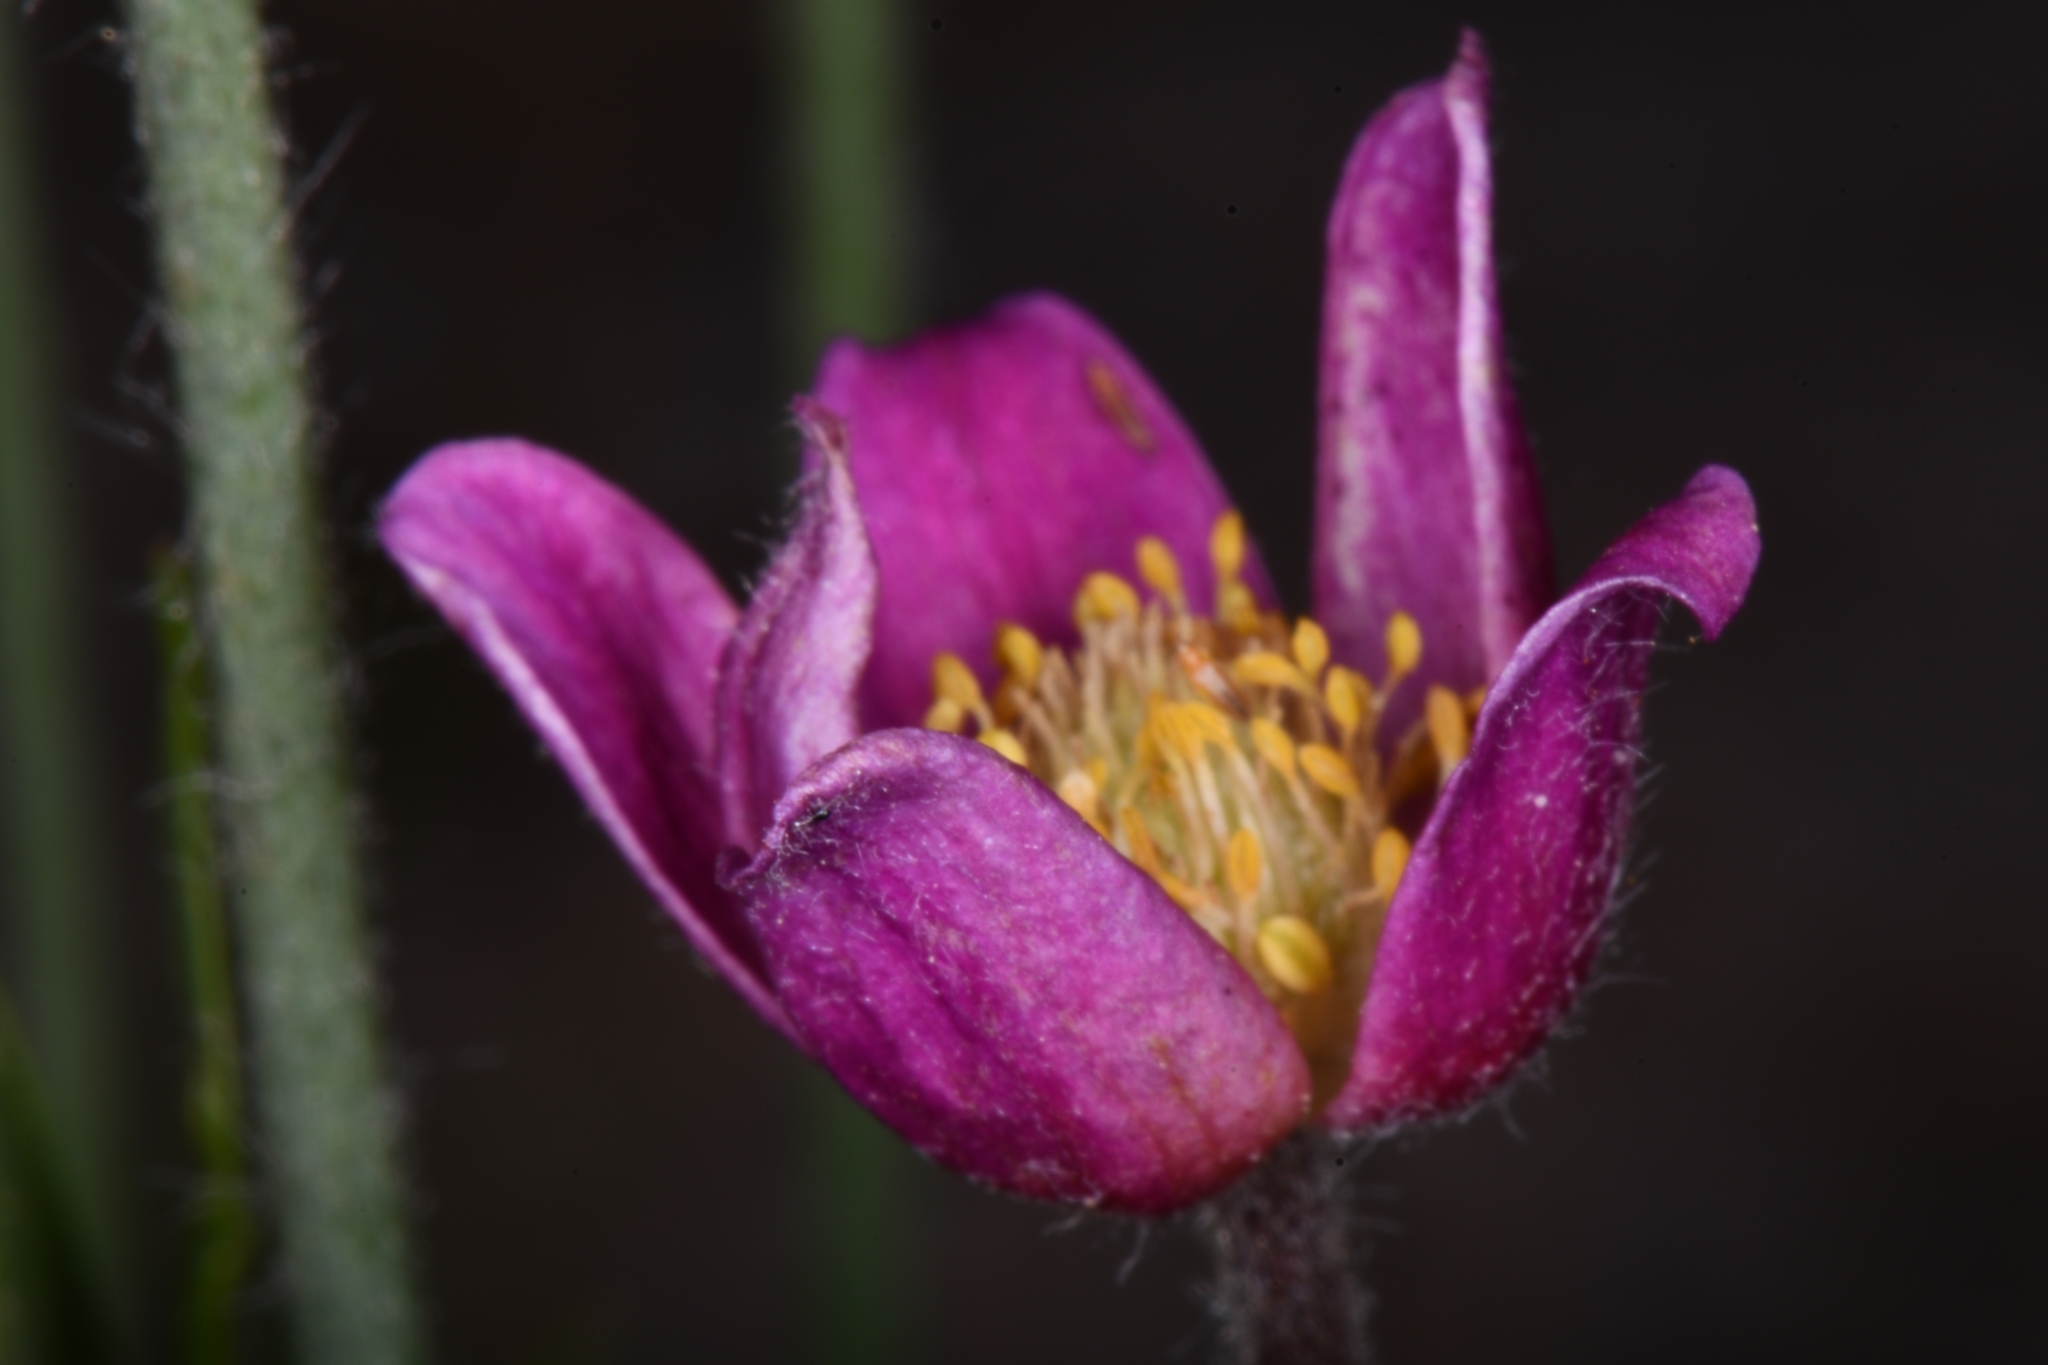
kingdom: Plantae
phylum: Tracheophyta
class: Magnoliopsida
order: Ranunculales
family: Ranunculaceae
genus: Anemone
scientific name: Anemone multifida
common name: Bird's-foot anemone
